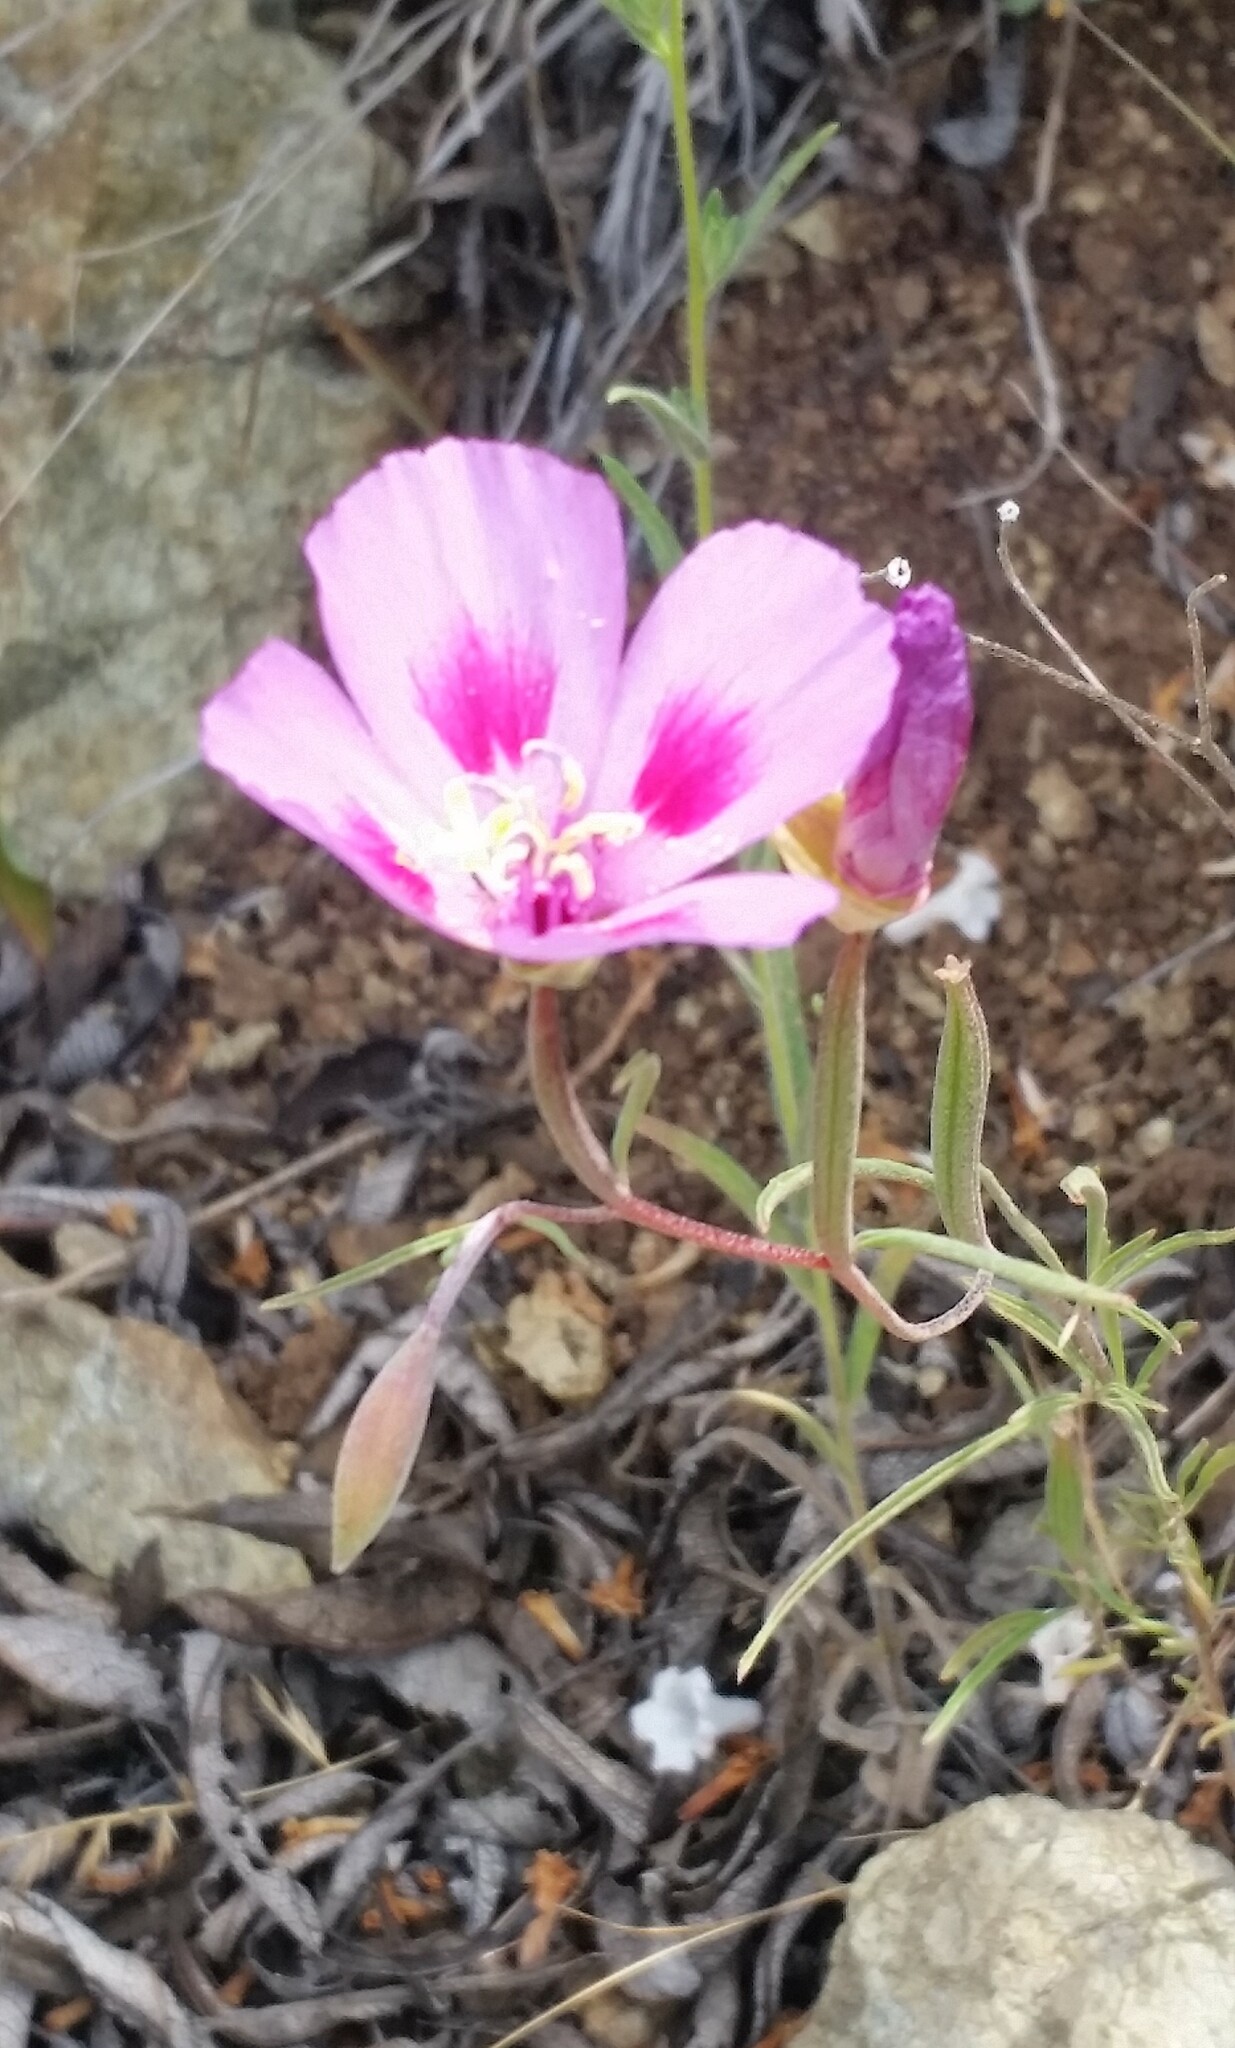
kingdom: Plantae
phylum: Tracheophyta
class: Magnoliopsida
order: Myrtales
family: Onagraceae
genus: Clarkia
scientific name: Clarkia gracilis
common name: Graceful clarkia
